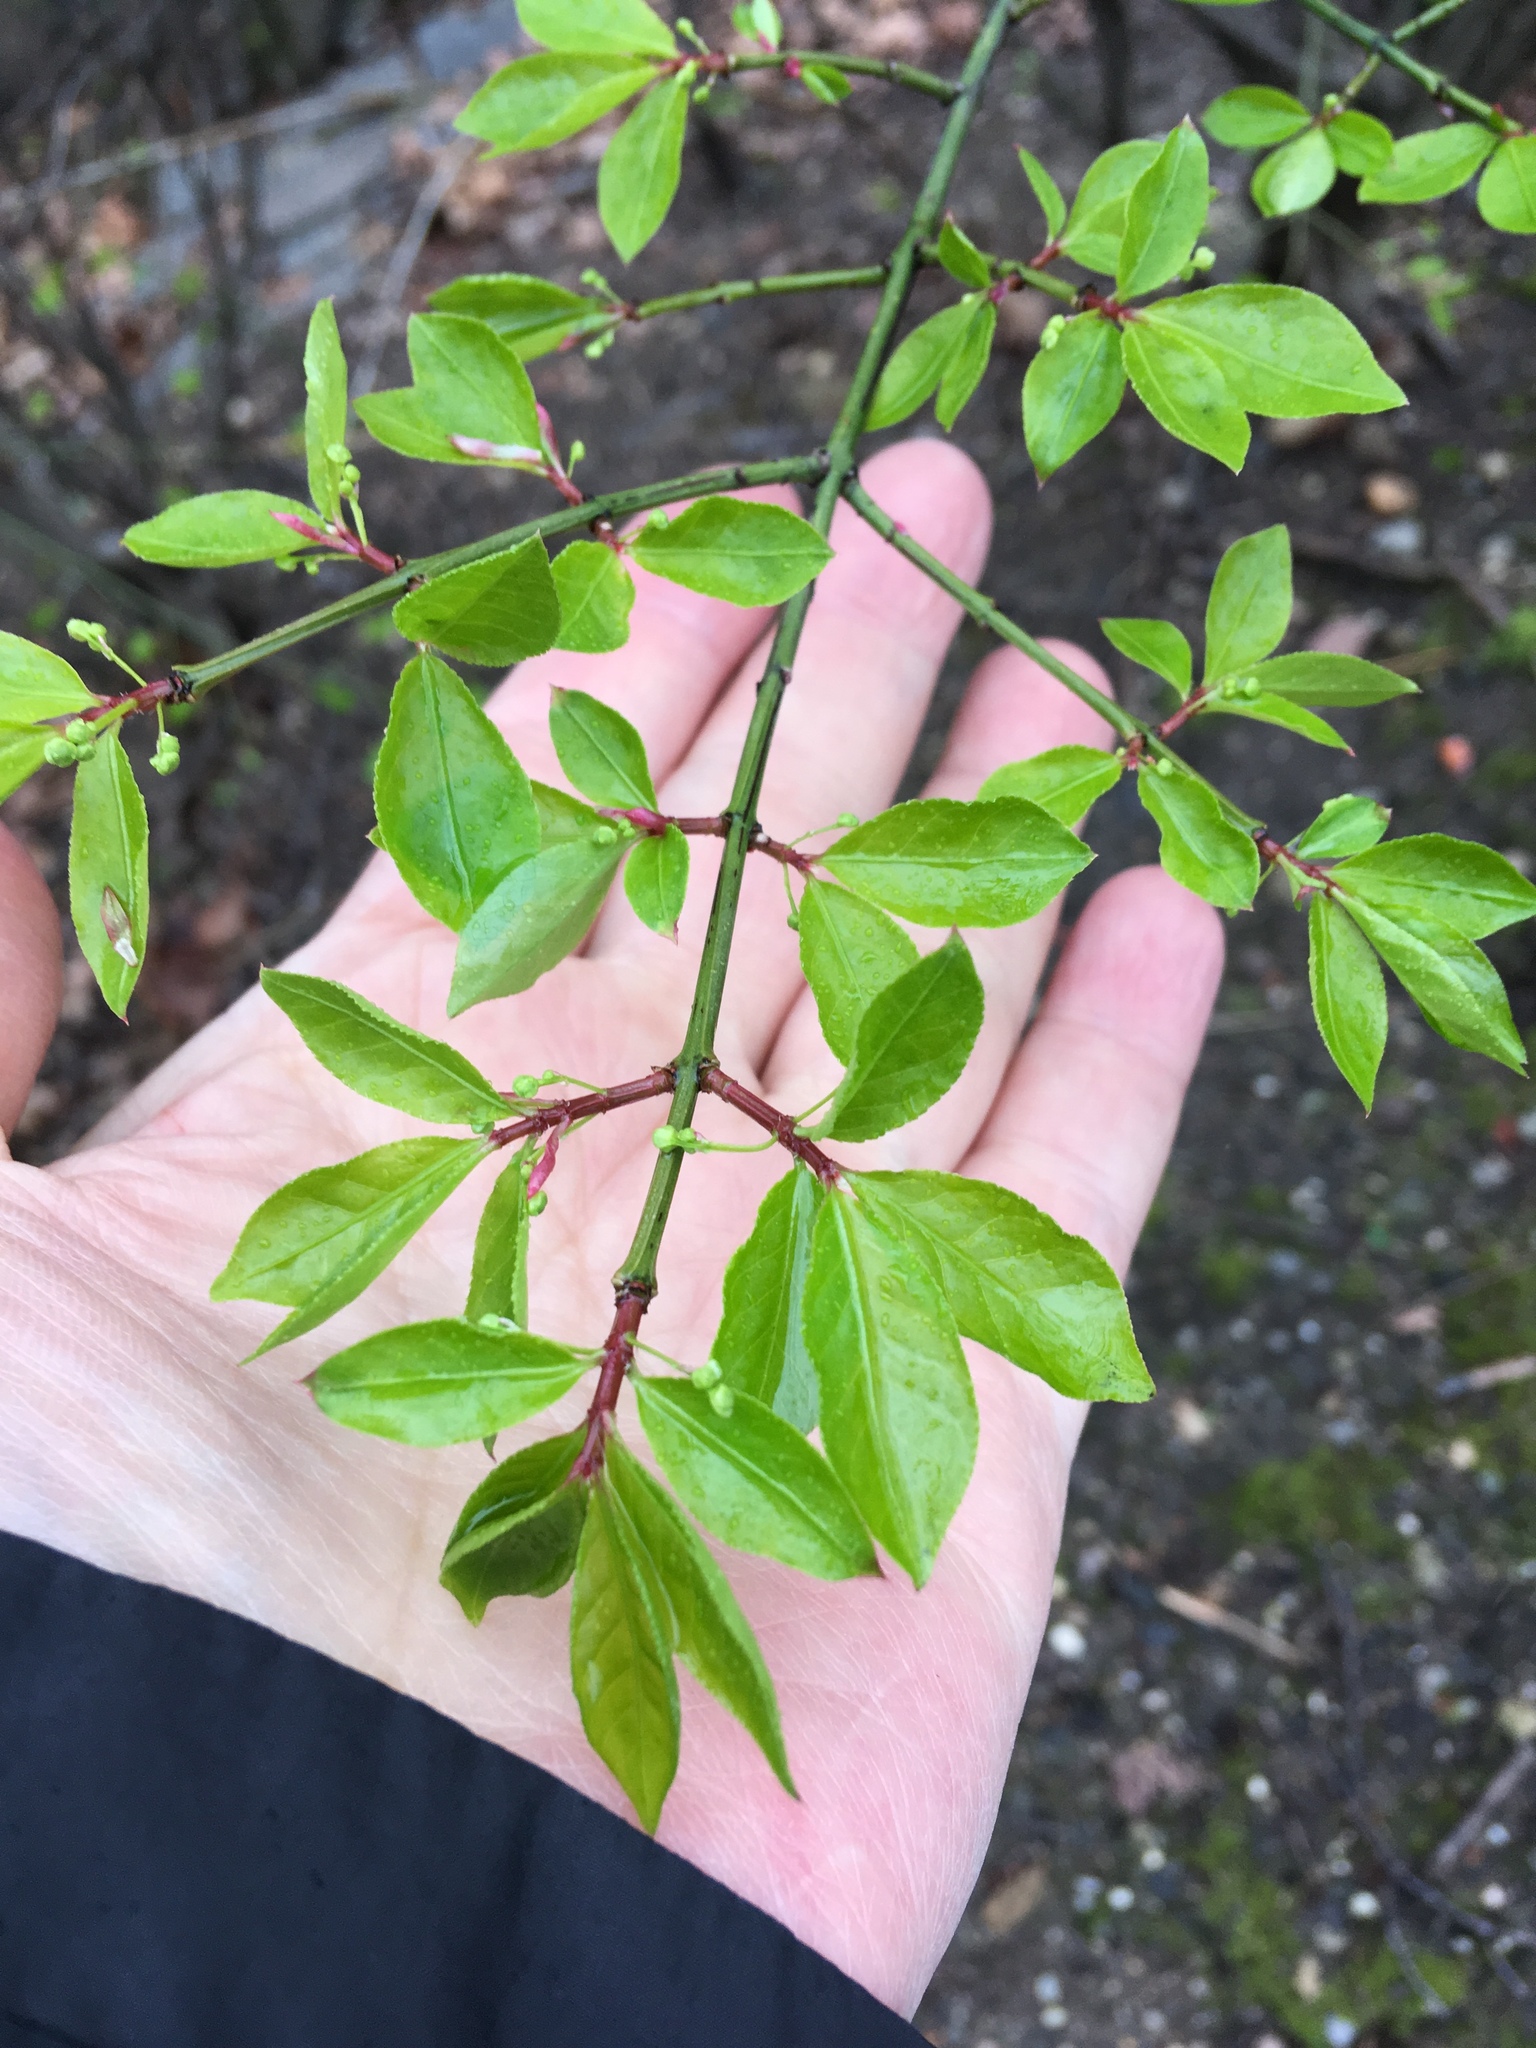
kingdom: Plantae
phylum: Tracheophyta
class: Magnoliopsida
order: Celastrales
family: Celastraceae
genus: Euonymus
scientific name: Euonymus alatus
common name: Winged euonymus
